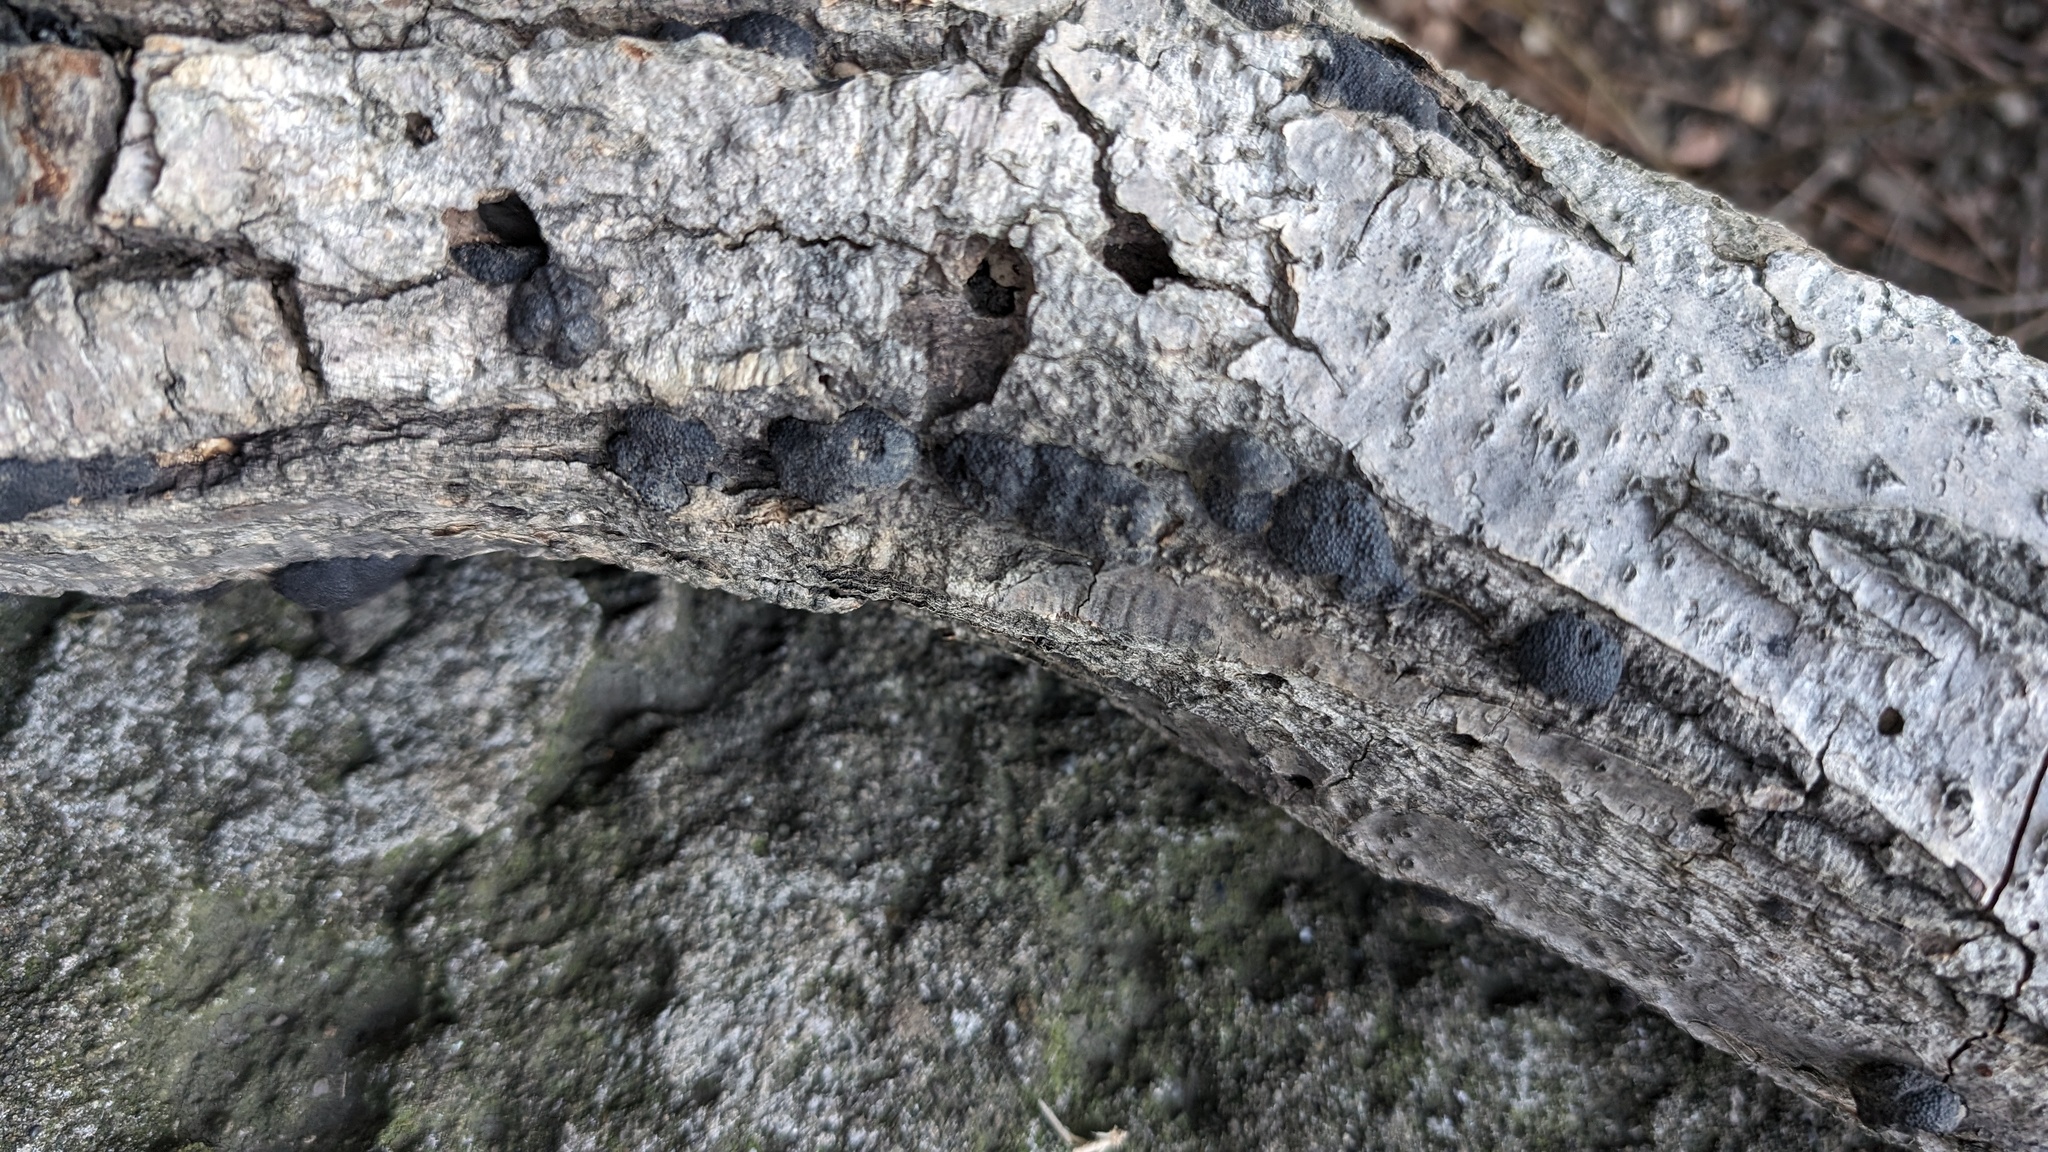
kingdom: Fungi
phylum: Ascomycota
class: Sordariomycetes
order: Xylariales
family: Hypoxylaceae
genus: Annulohypoxylon
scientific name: Annulohypoxylon truncatum
